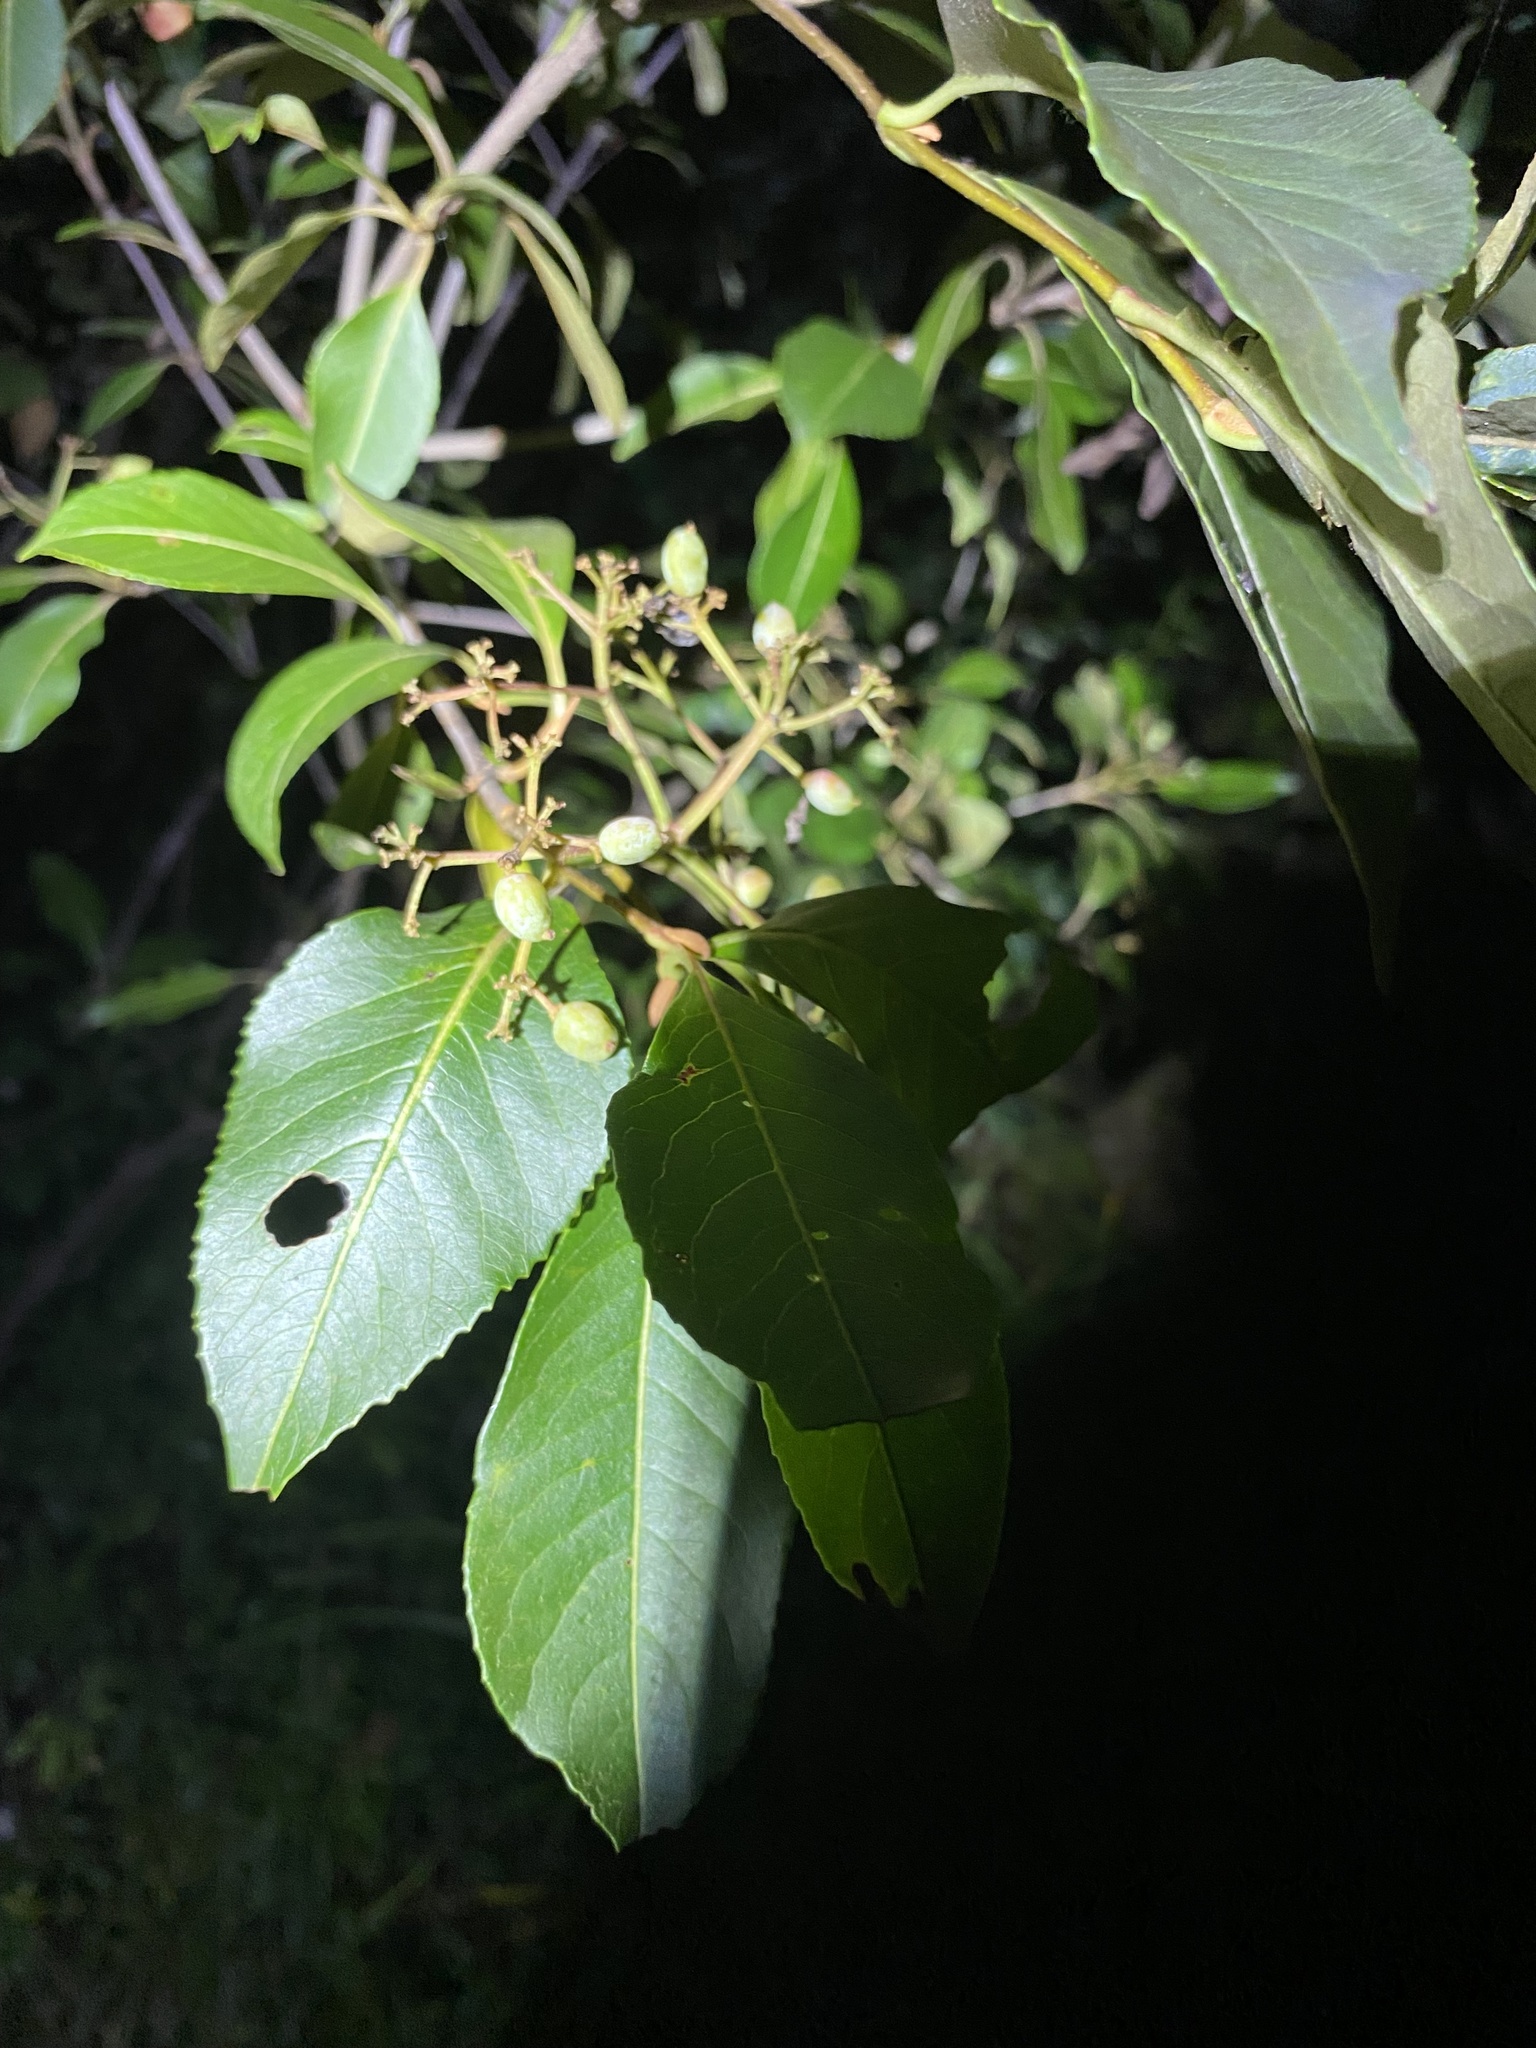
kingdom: Plantae
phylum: Tracheophyta
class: Magnoliopsida
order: Dipsacales
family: Viburnaceae
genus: Viburnum
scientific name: Viburnum cassinoides
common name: Swamp haw
